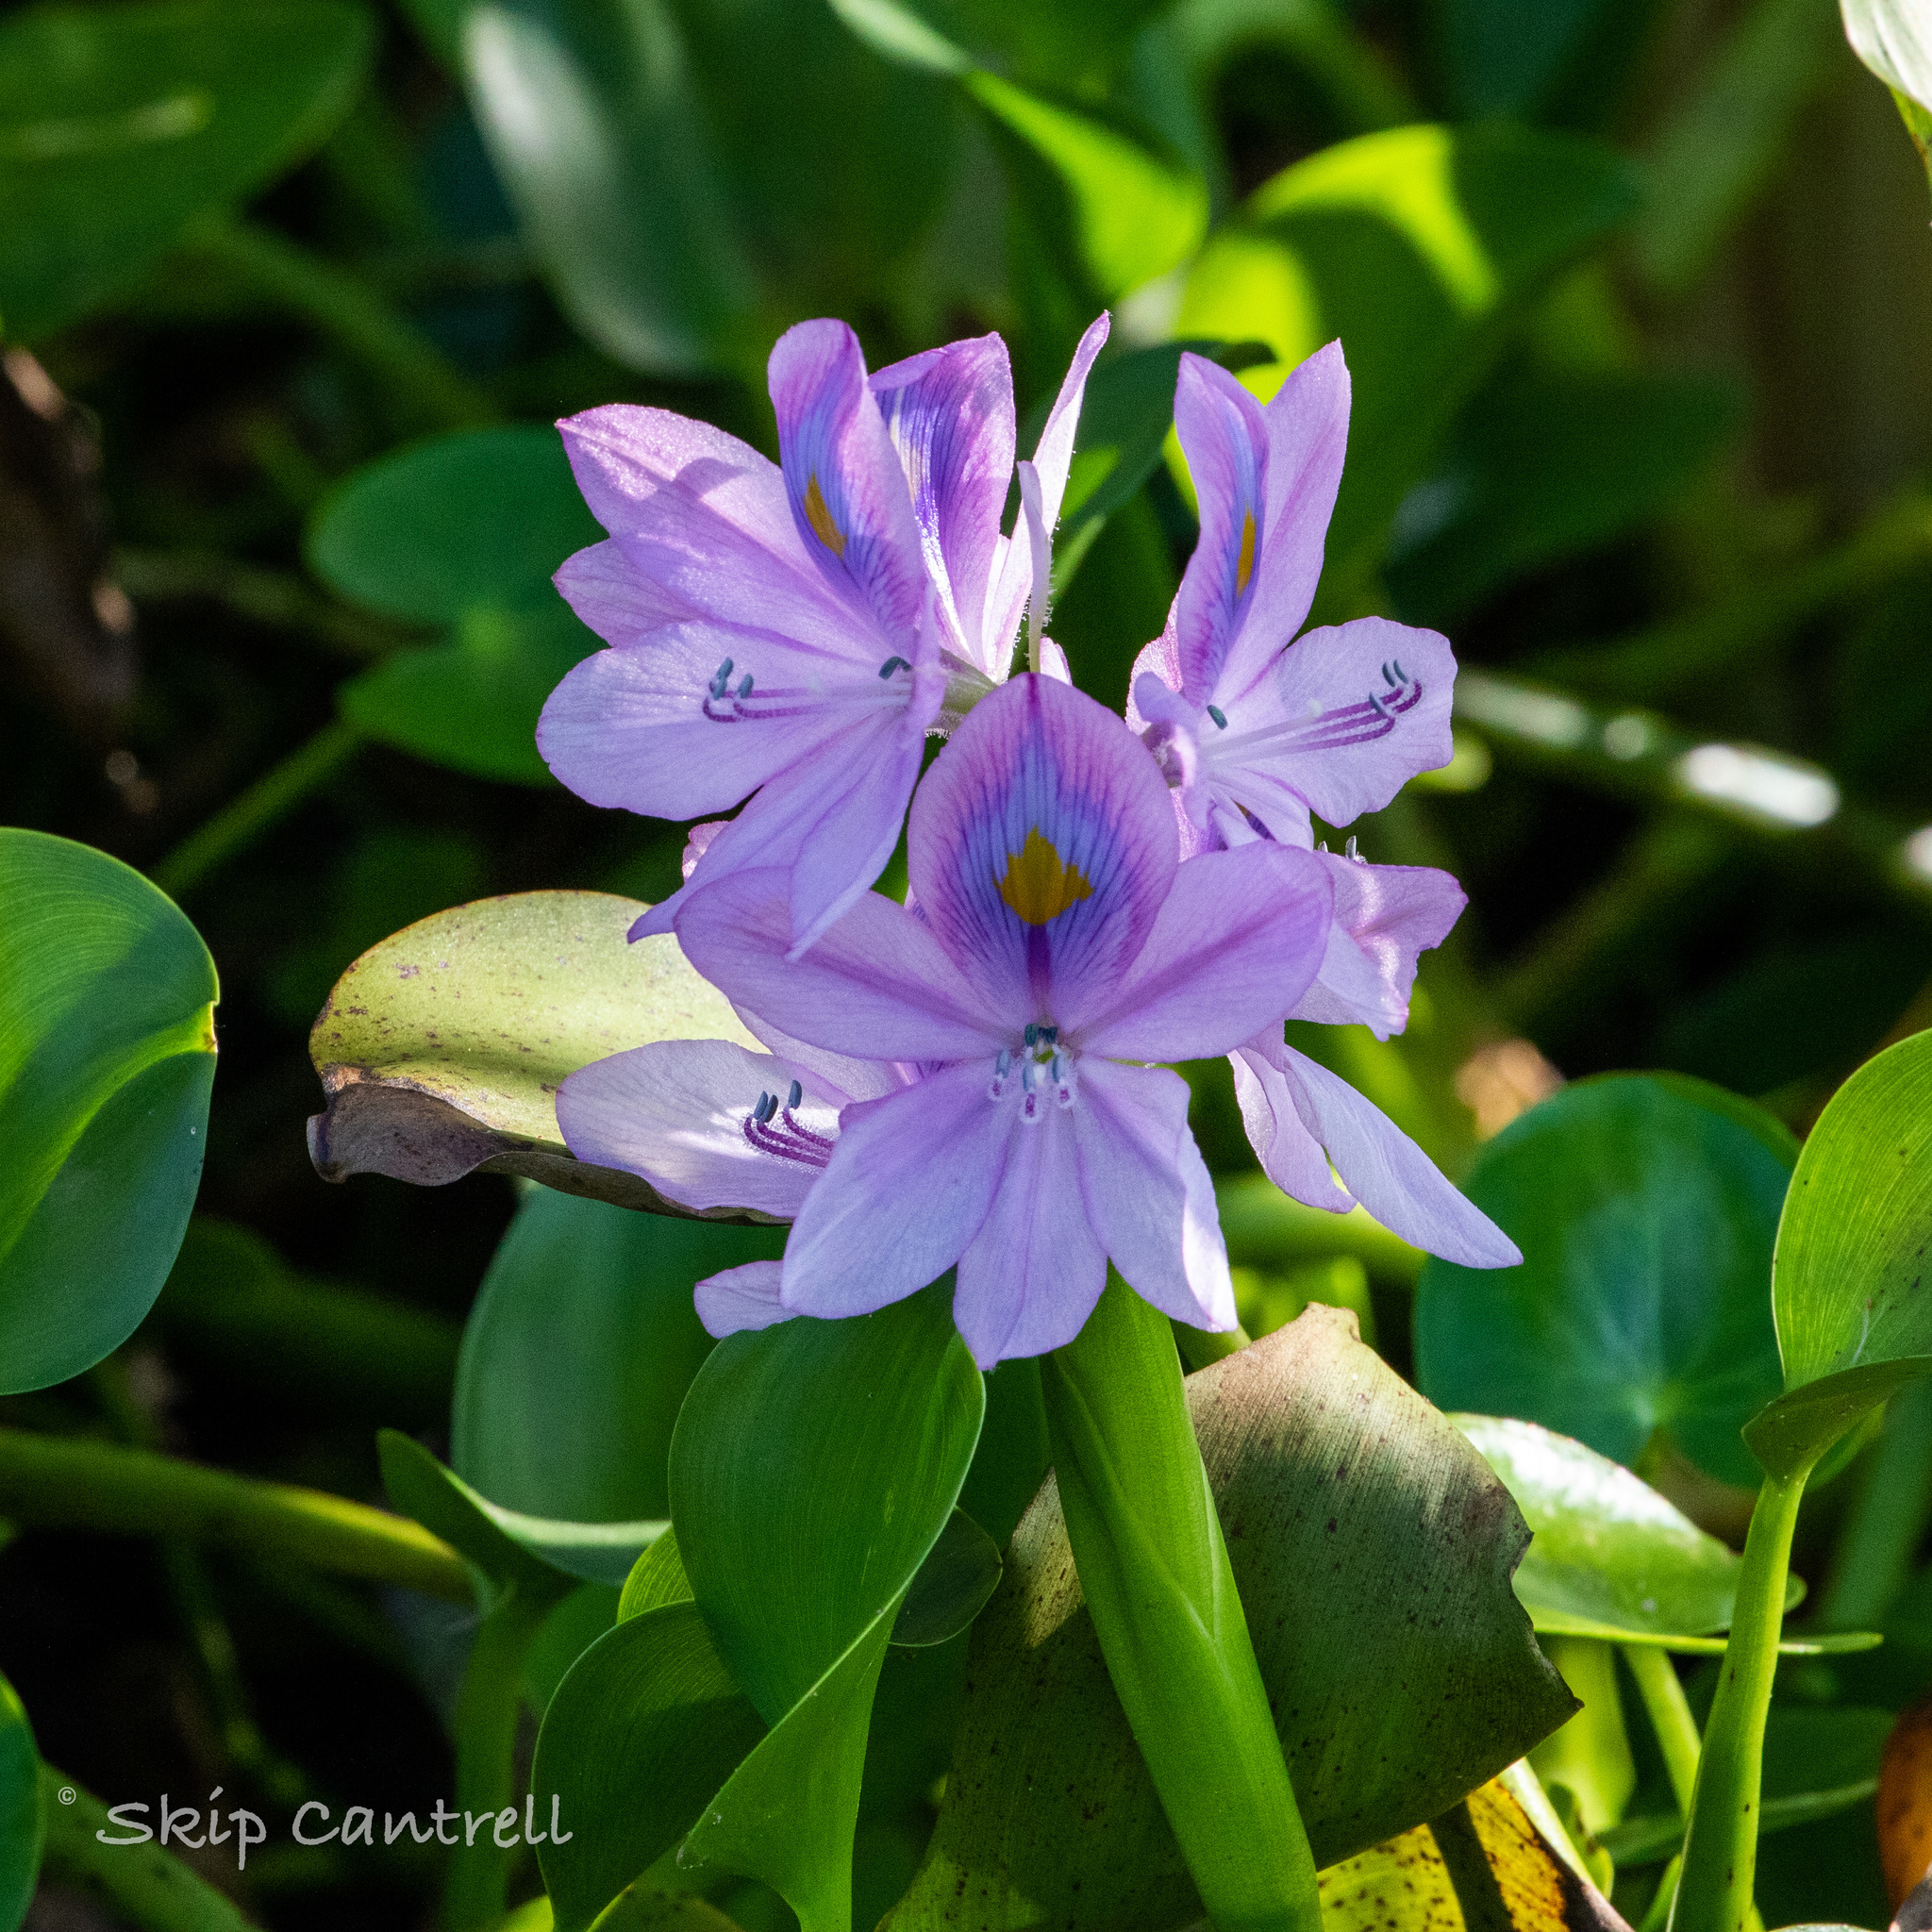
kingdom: Plantae
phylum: Tracheophyta
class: Liliopsida
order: Commelinales
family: Pontederiaceae
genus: Pontederia
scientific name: Pontederia crassipes
